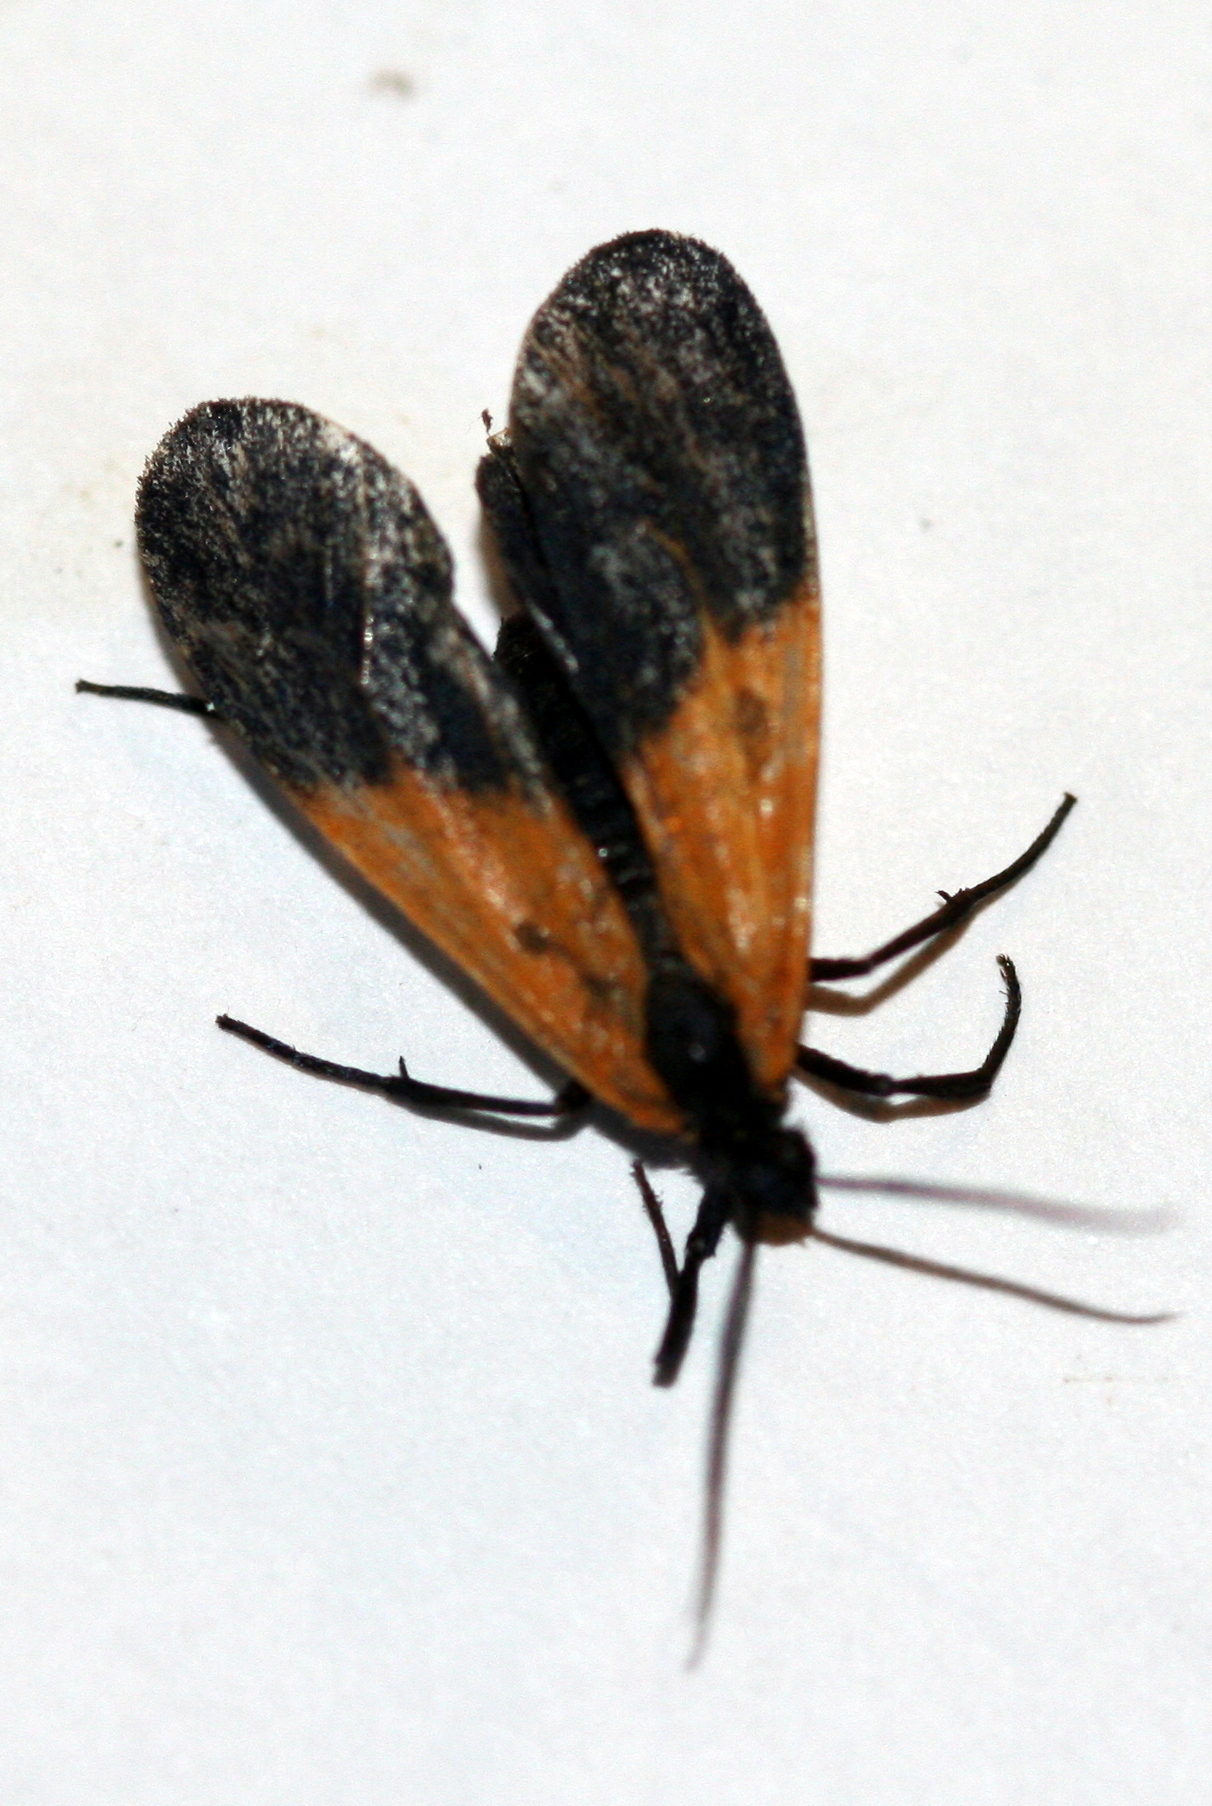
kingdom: Animalia
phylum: Arthropoda
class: Insecta
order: Lepidoptera
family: Erebidae
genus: Lycomorpha
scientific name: Lycomorpha pholus
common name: Black-and-yellow lichen moth
